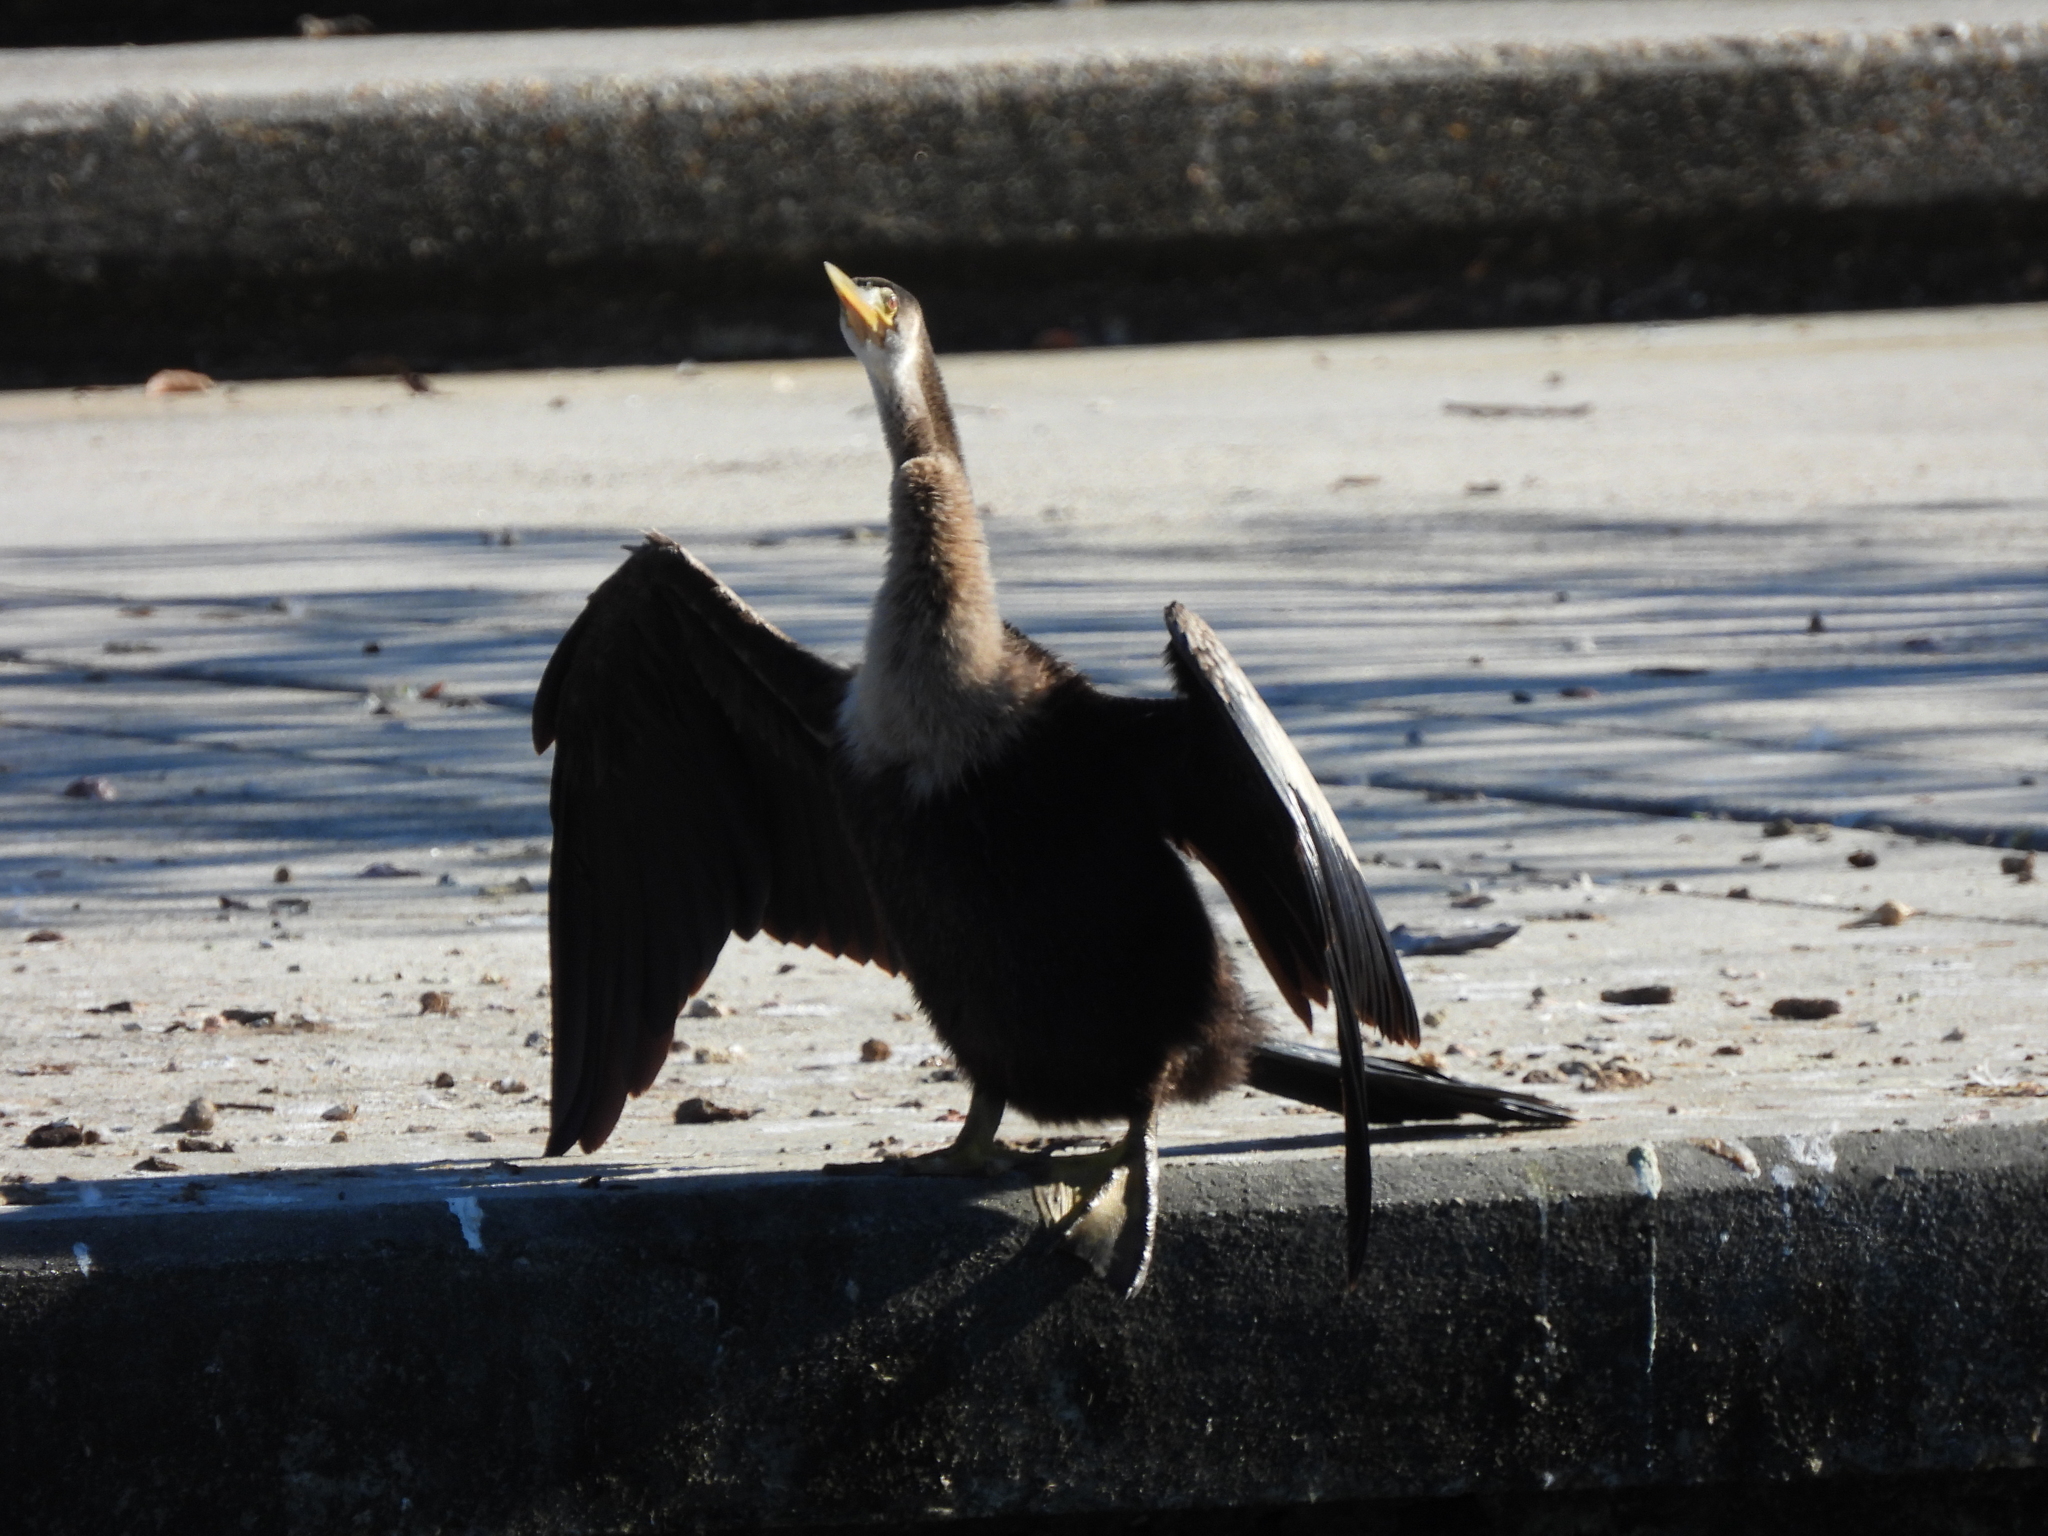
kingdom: Animalia
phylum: Chordata
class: Aves
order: Suliformes
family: Anhingidae
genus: Anhinga
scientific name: Anhinga anhinga
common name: Anhinga
